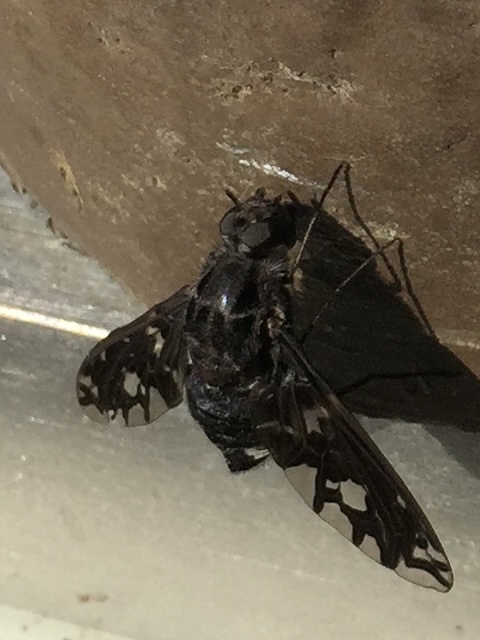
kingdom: Animalia
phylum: Arthropoda
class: Insecta
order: Diptera
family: Bombyliidae
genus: Xenox
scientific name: Xenox tigrinus
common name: Tiger bee fly
